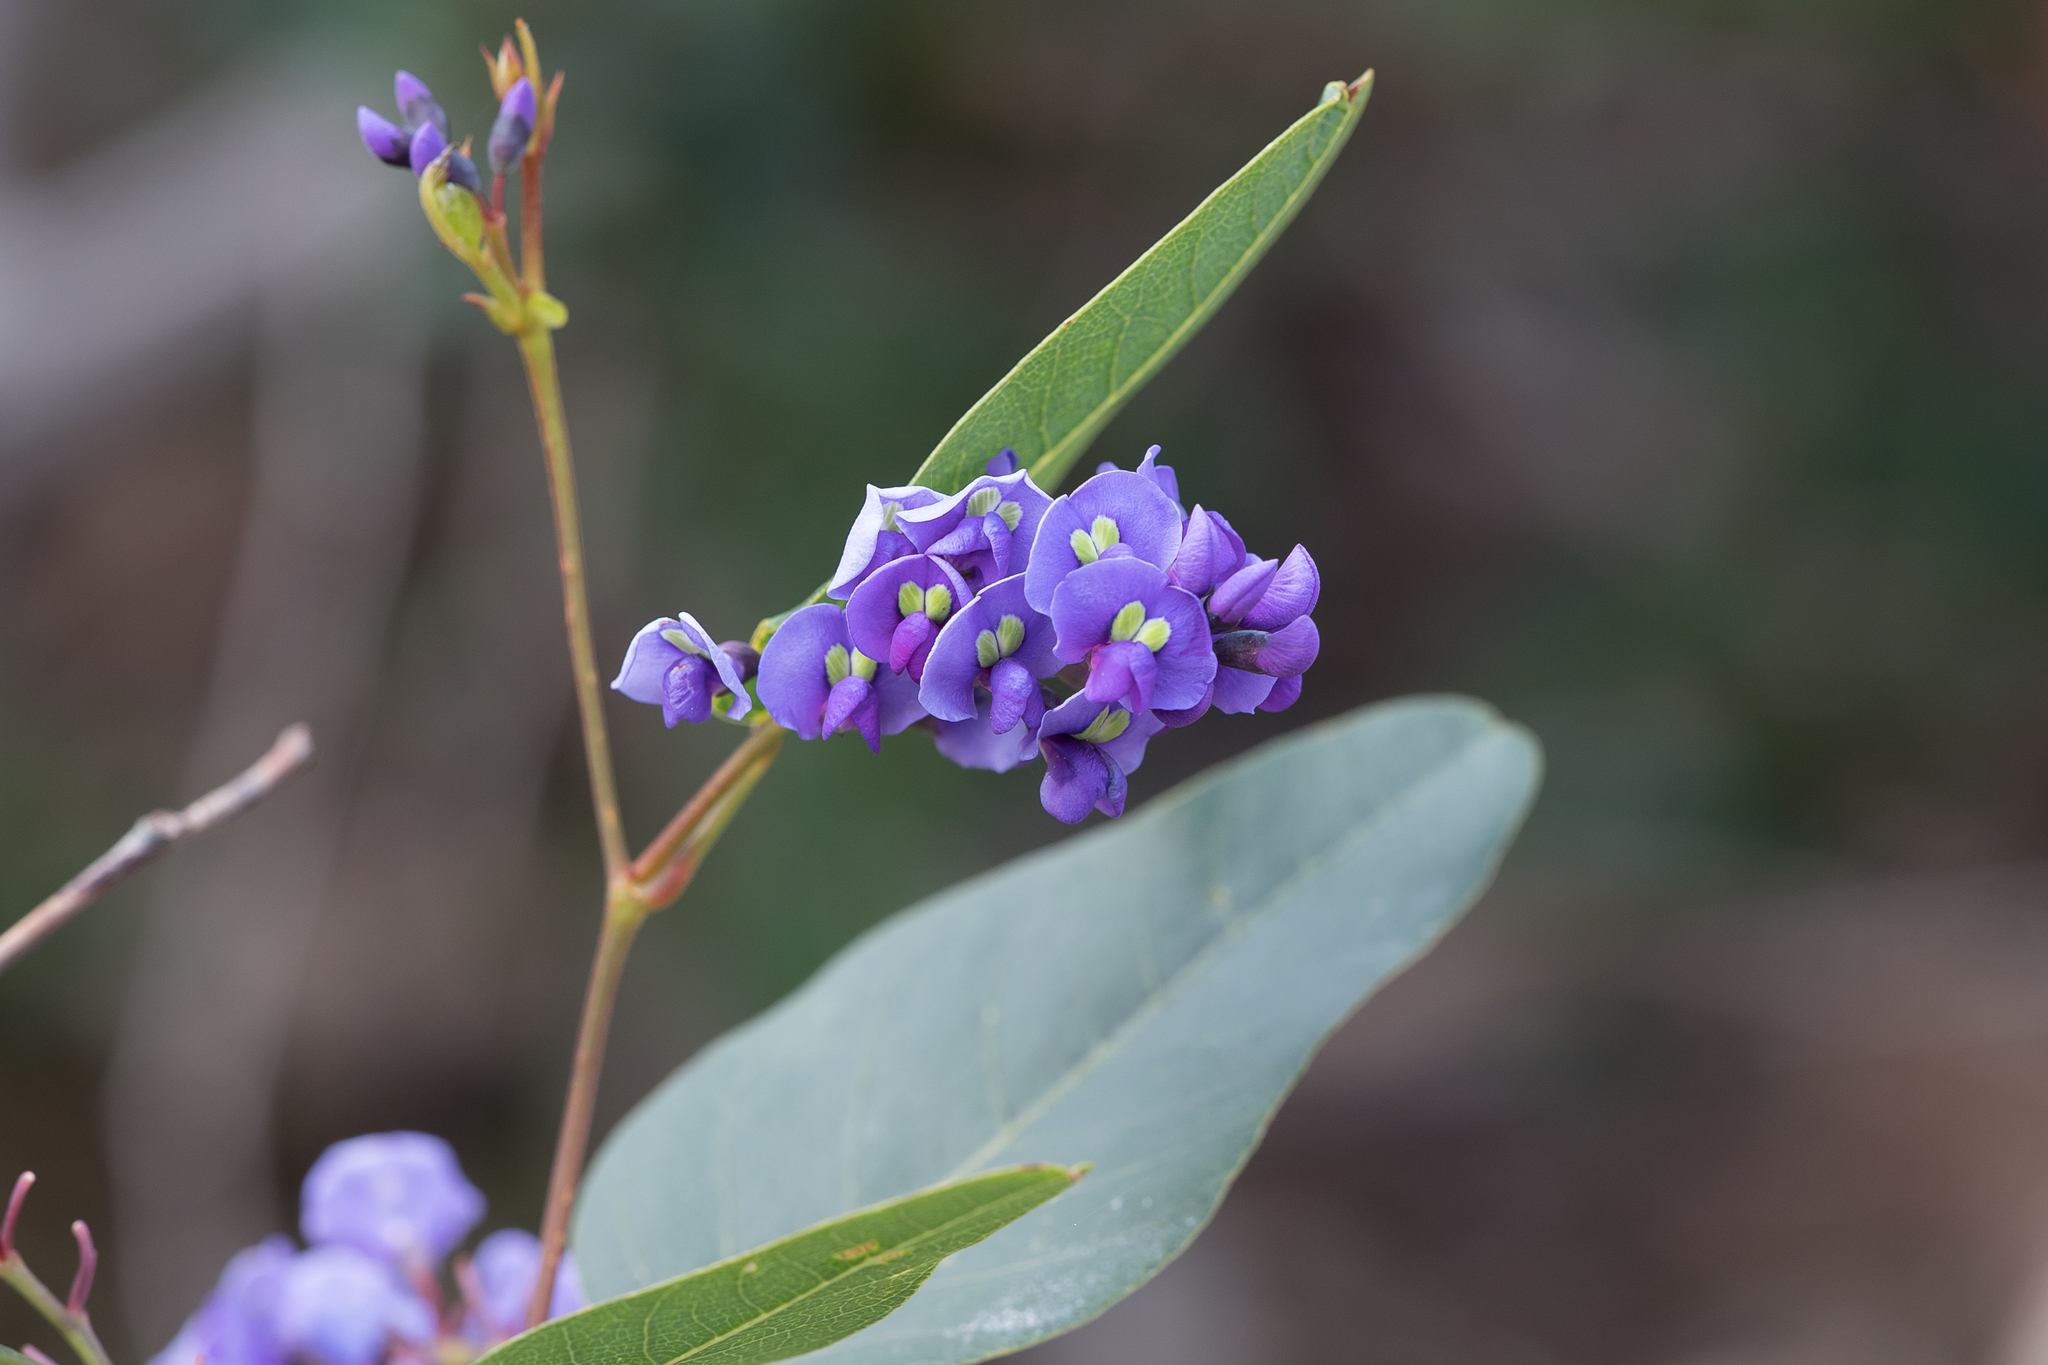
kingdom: Plantae
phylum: Tracheophyta
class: Magnoliopsida
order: Fabales
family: Fabaceae
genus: Hardenbergia
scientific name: Hardenbergia violacea
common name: Coral-pea
